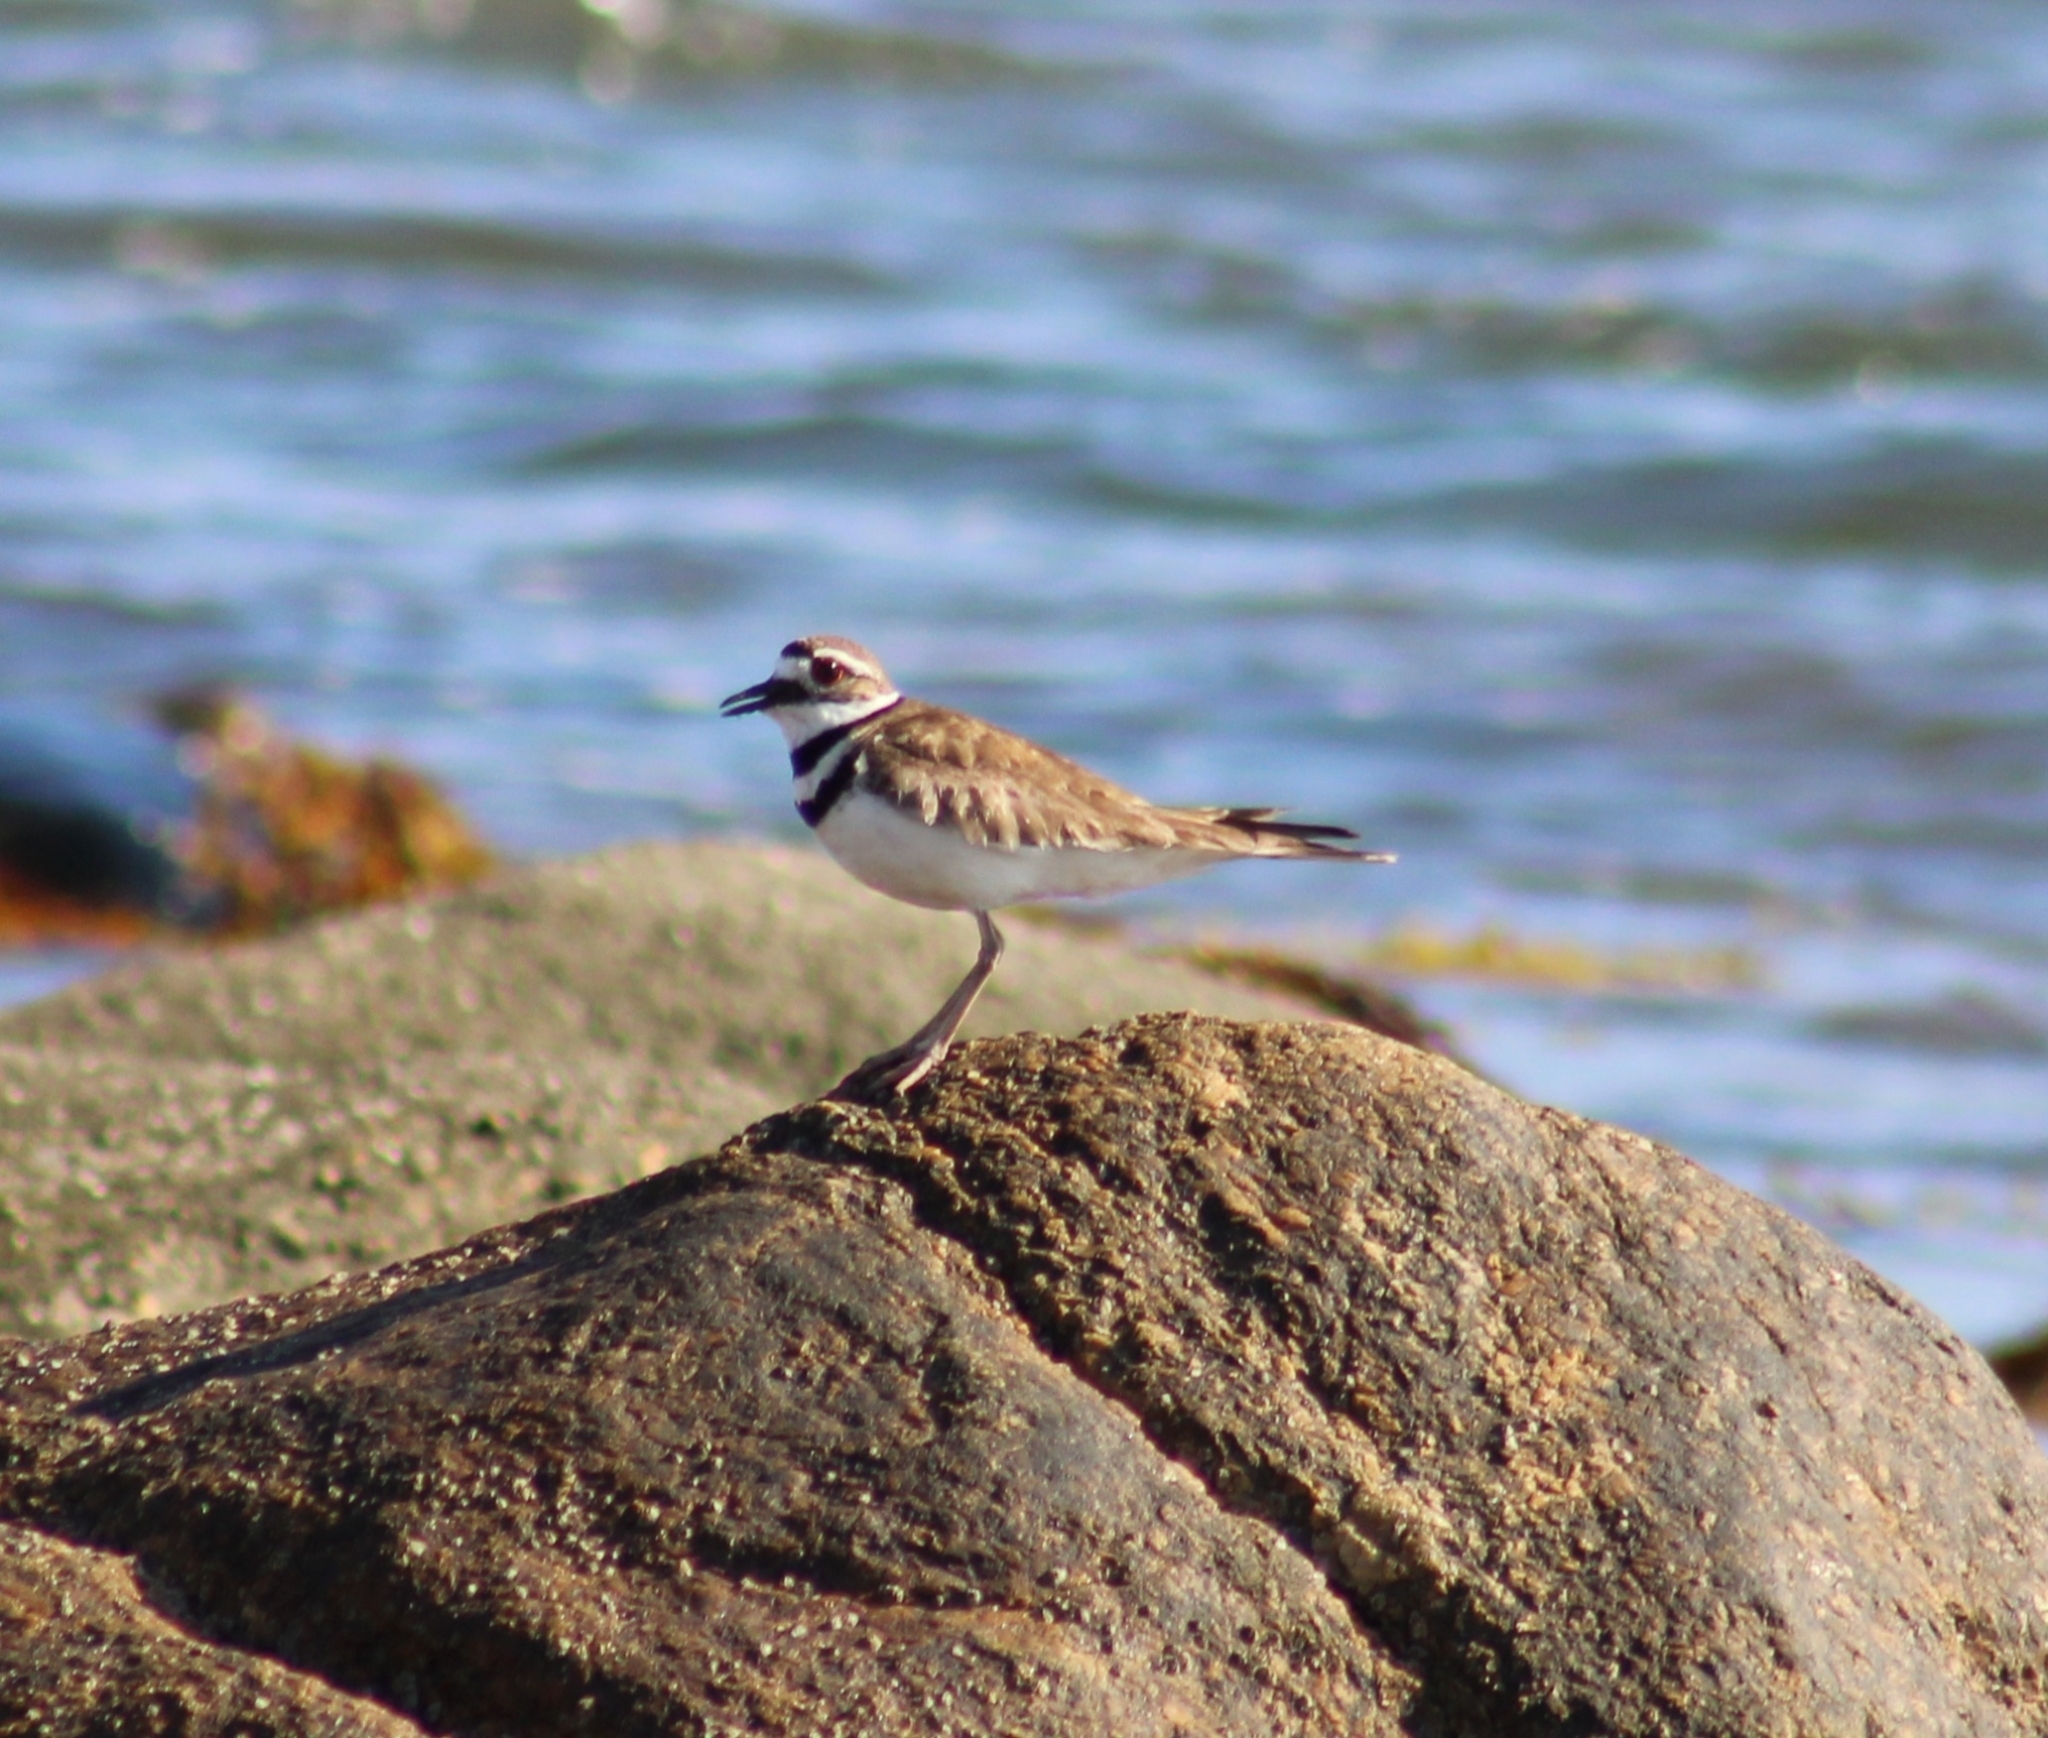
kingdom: Animalia
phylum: Chordata
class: Aves
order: Charadriiformes
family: Charadriidae
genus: Charadrius
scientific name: Charadrius vociferus
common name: Killdeer
